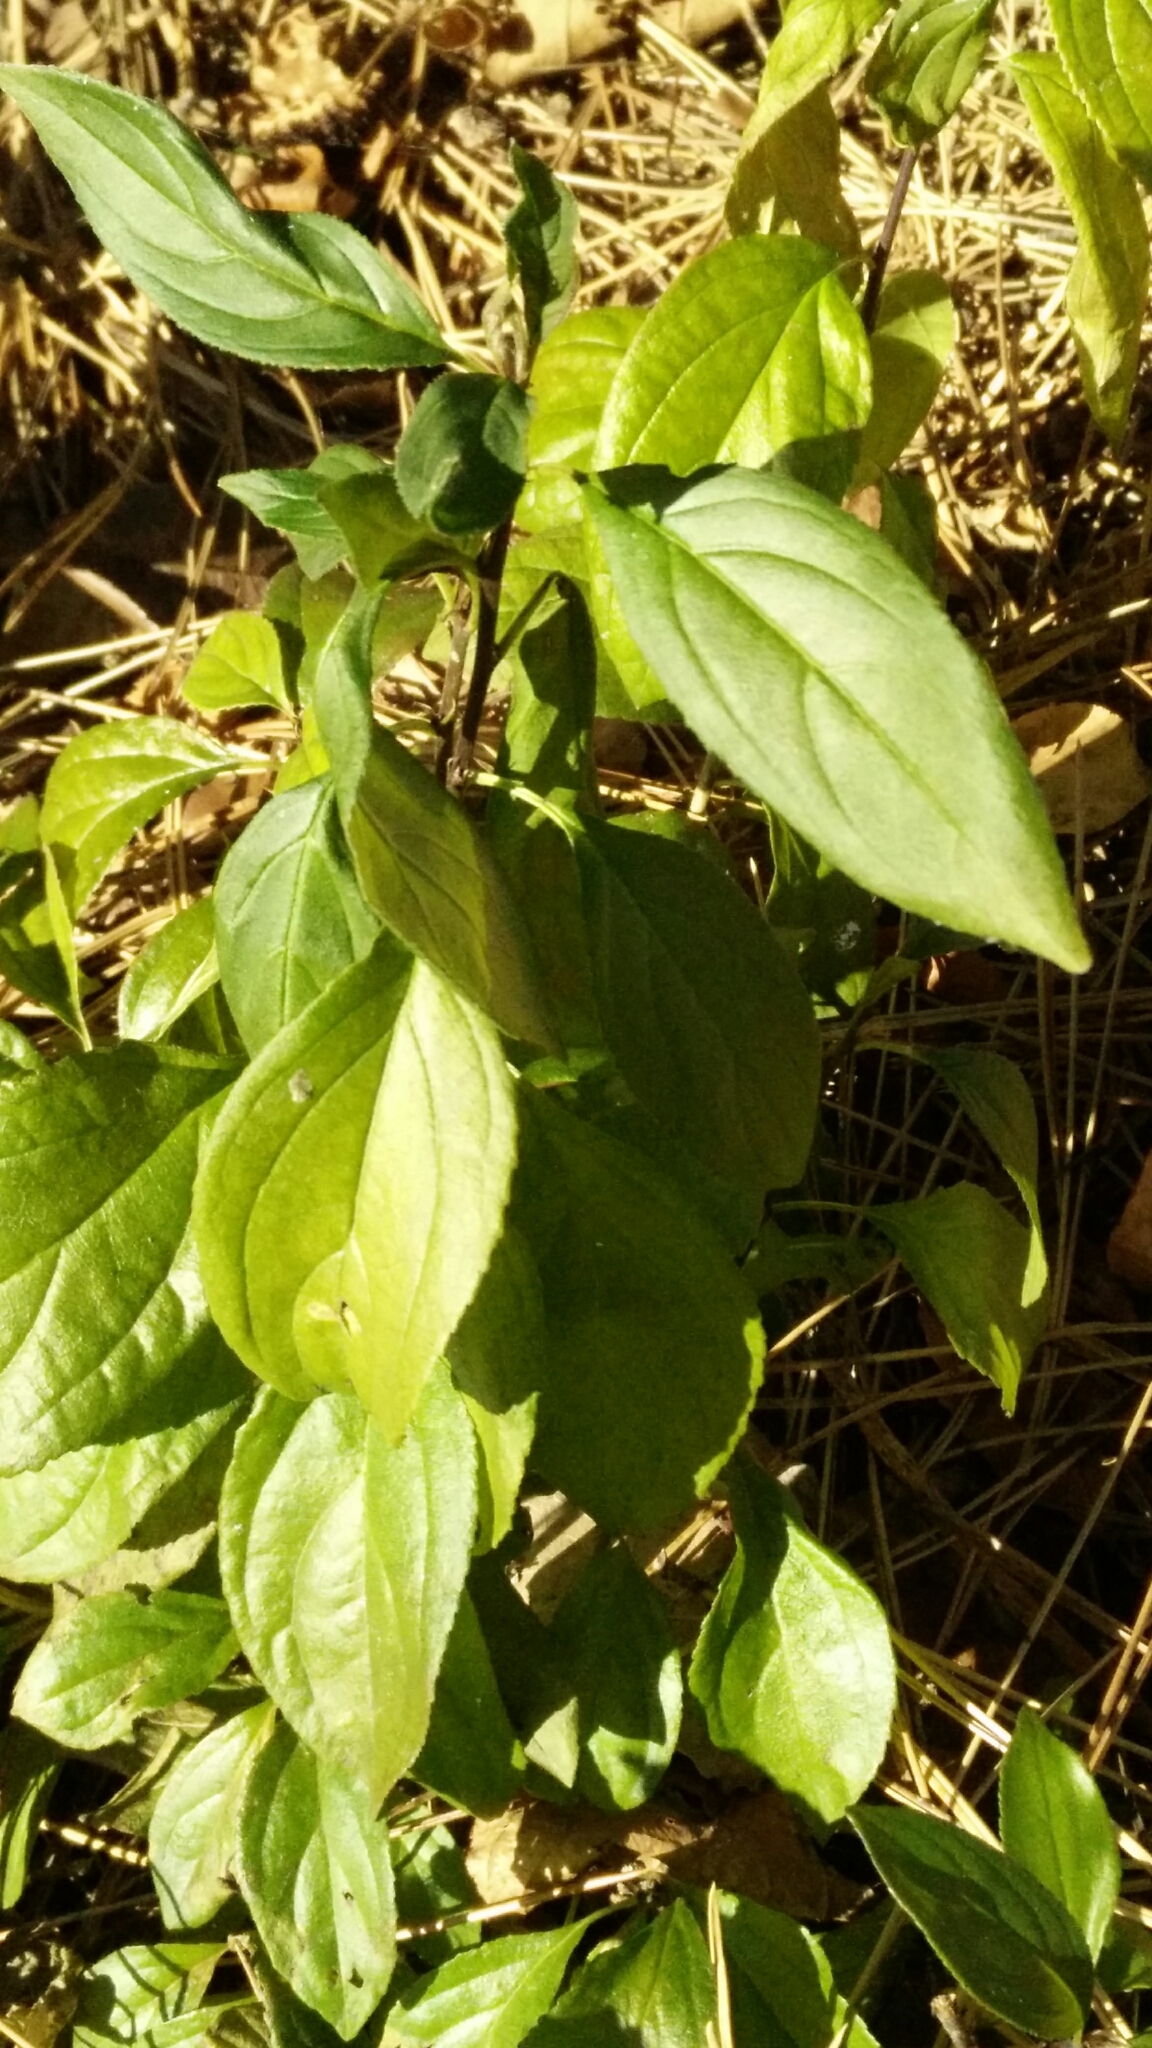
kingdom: Plantae
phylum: Tracheophyta
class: Magnoliopsida
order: Rosales
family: Rhamnaceae
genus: Rhamnus
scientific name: Rhamnus cathartica
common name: Common buckthorn
